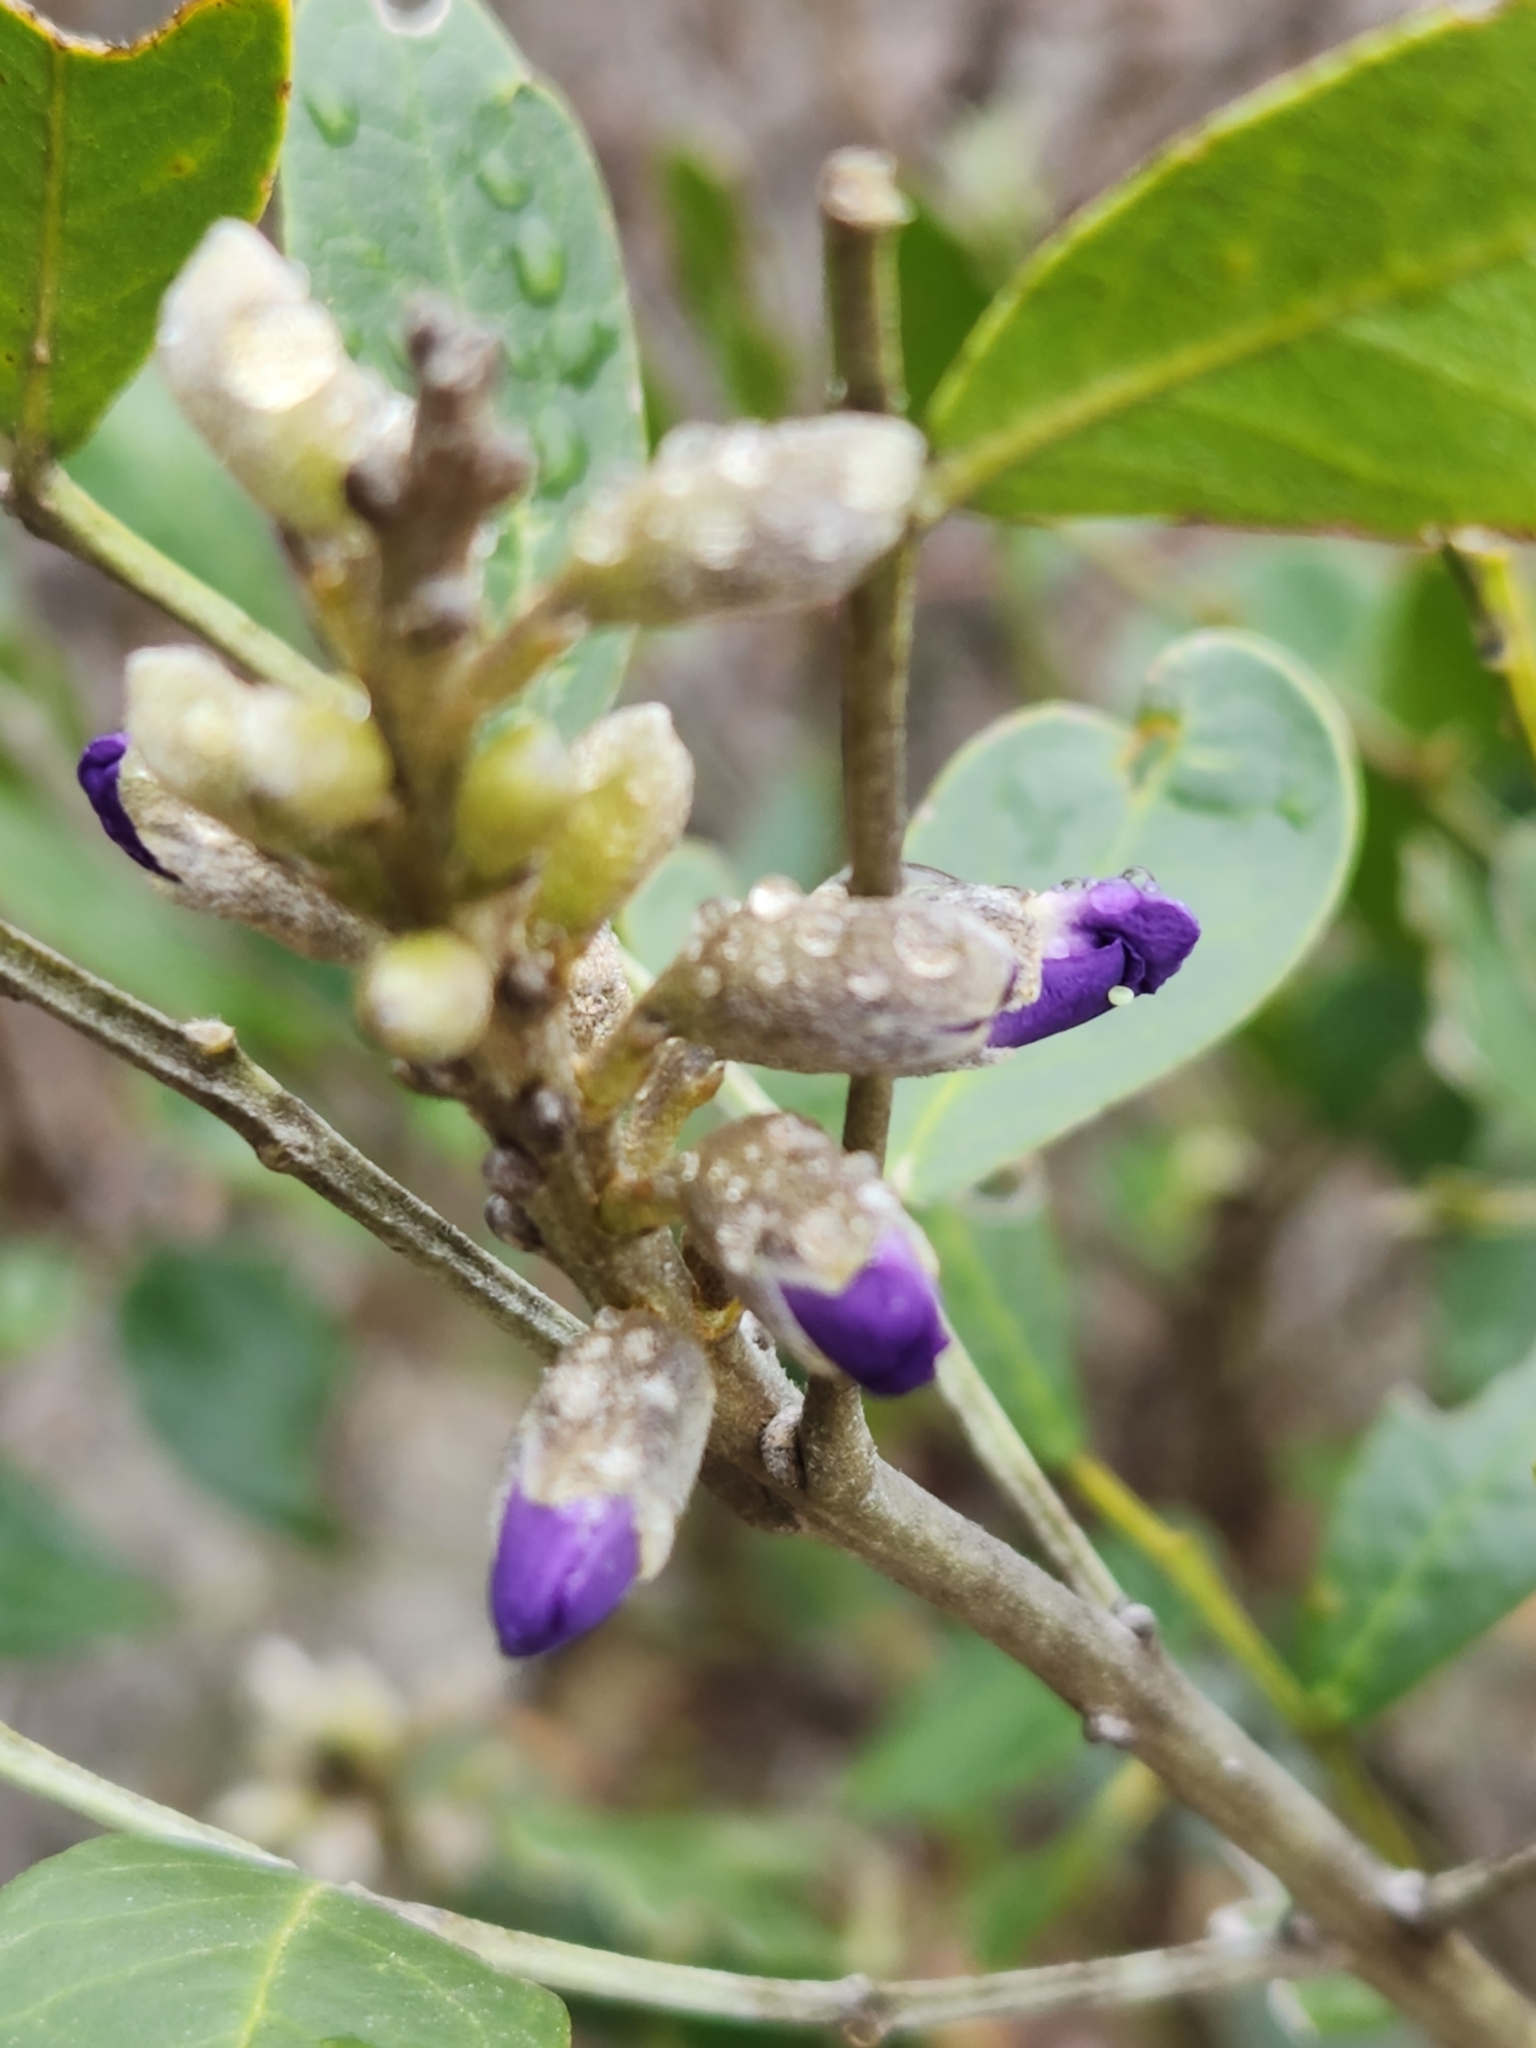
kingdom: Plantae
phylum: Tracheophyta
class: Magnoliopsida
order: Fabales
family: Fabaceae
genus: Dermatophyllum
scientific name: Dermatophyllum secundiflorum
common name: Texas-mountain-laurel
